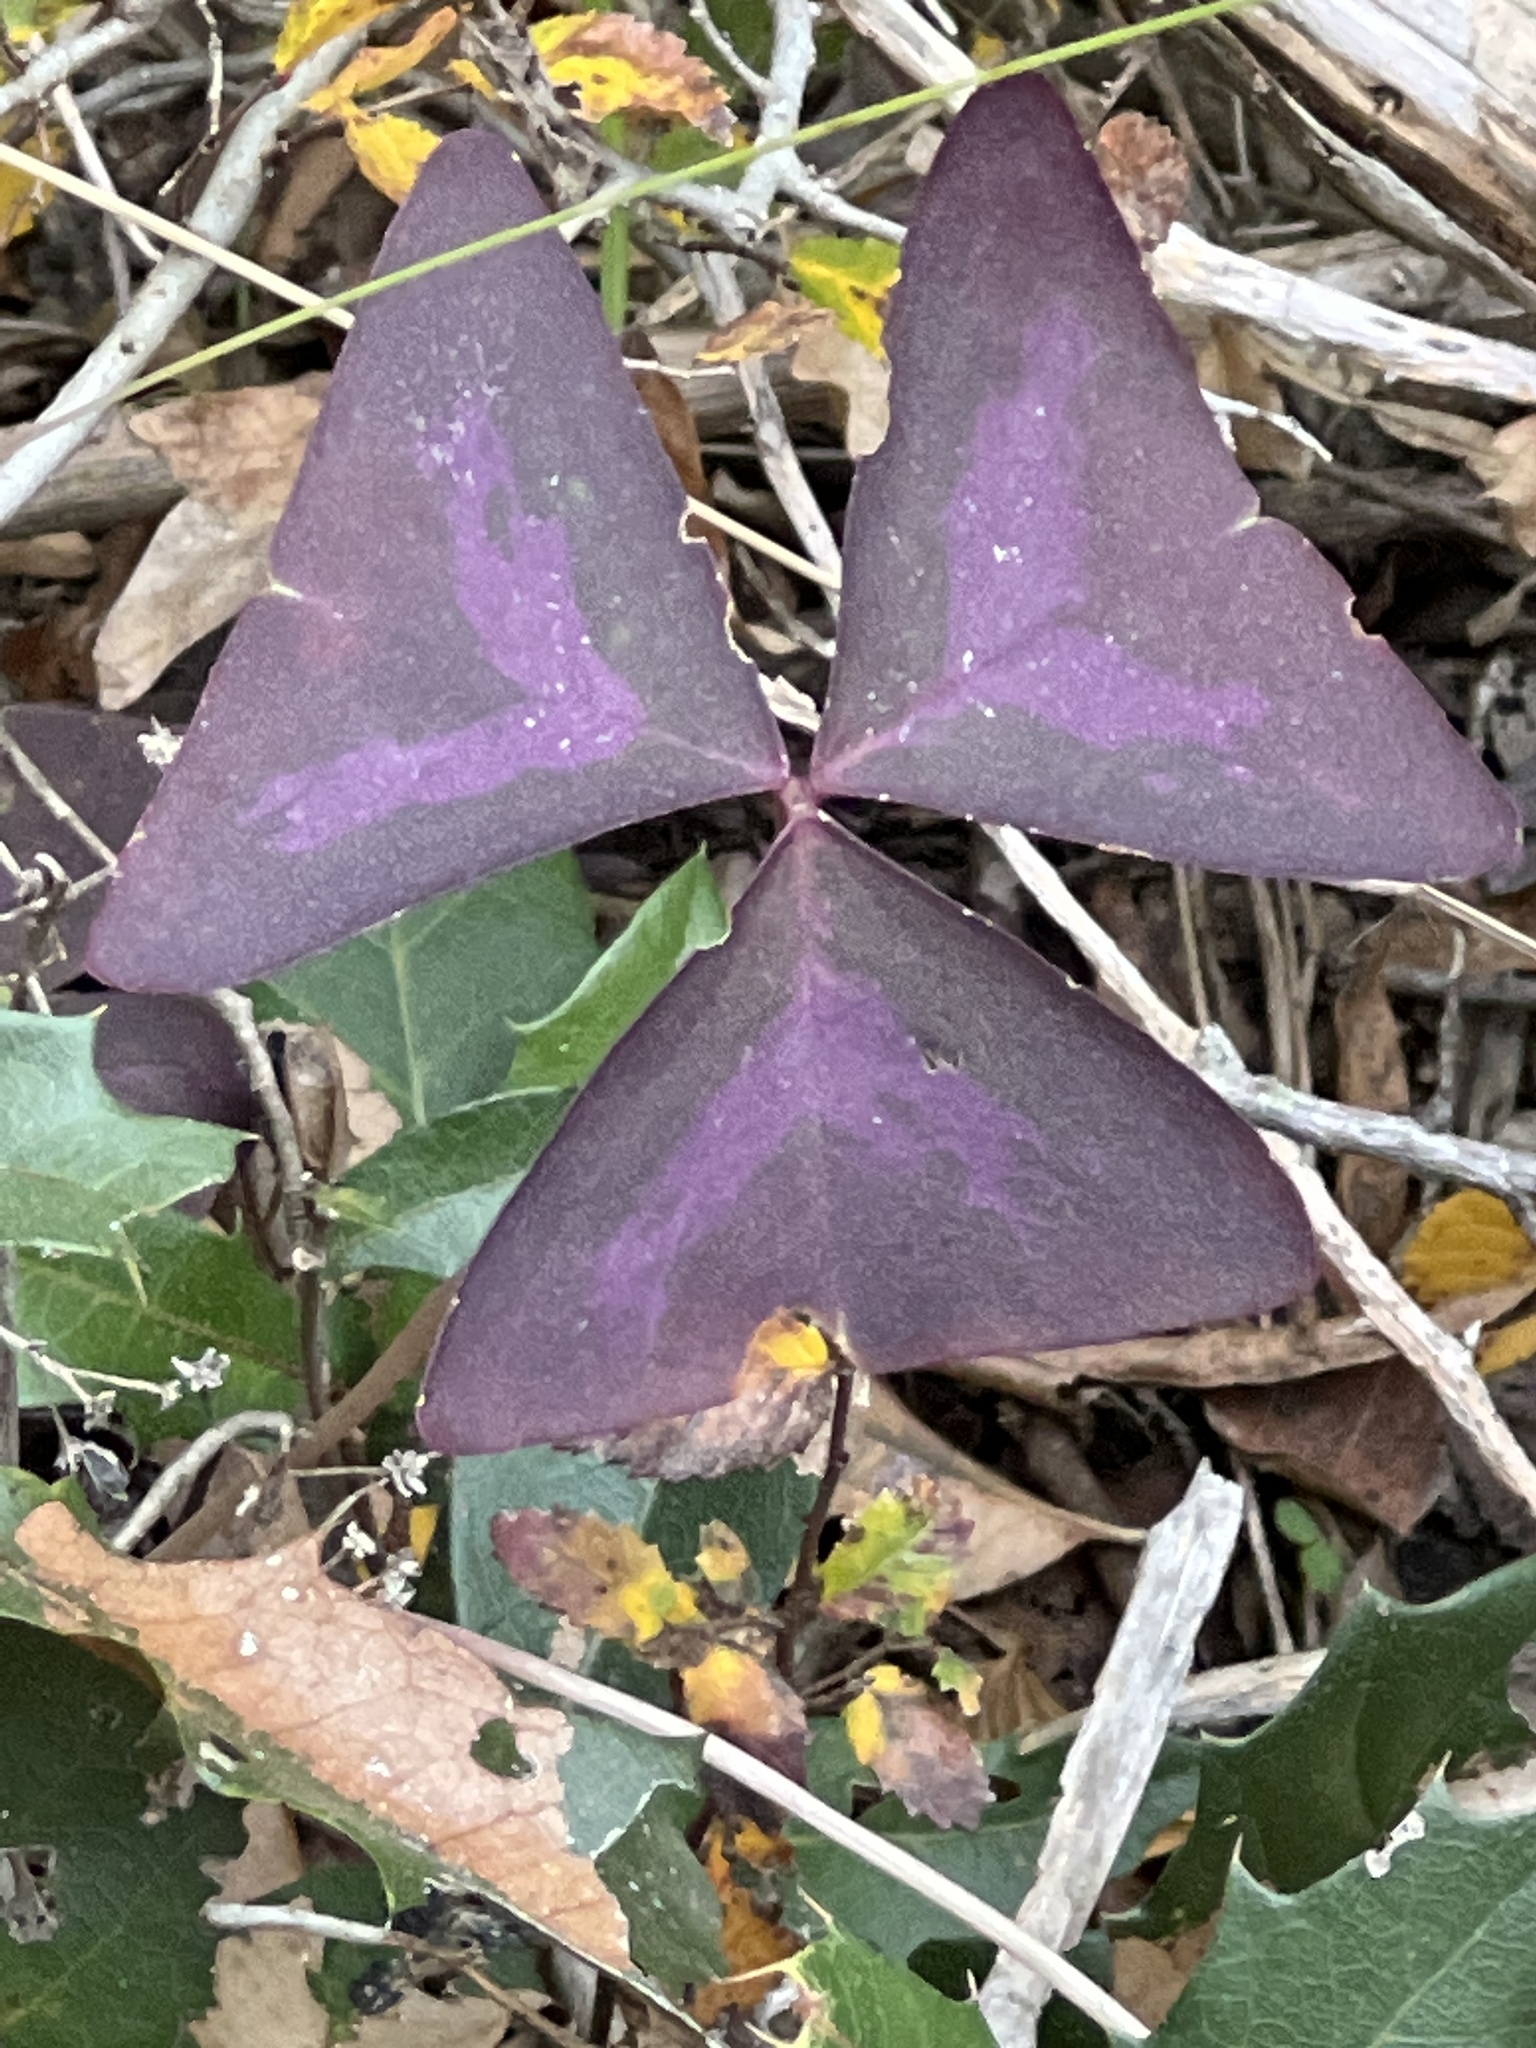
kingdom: Plantae
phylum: Tracheophyta
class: Magnoliopsida
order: Oxalidales
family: Oxalidaceae
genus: Oxalis
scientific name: Oxalis triangularis
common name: Wood sorrel
